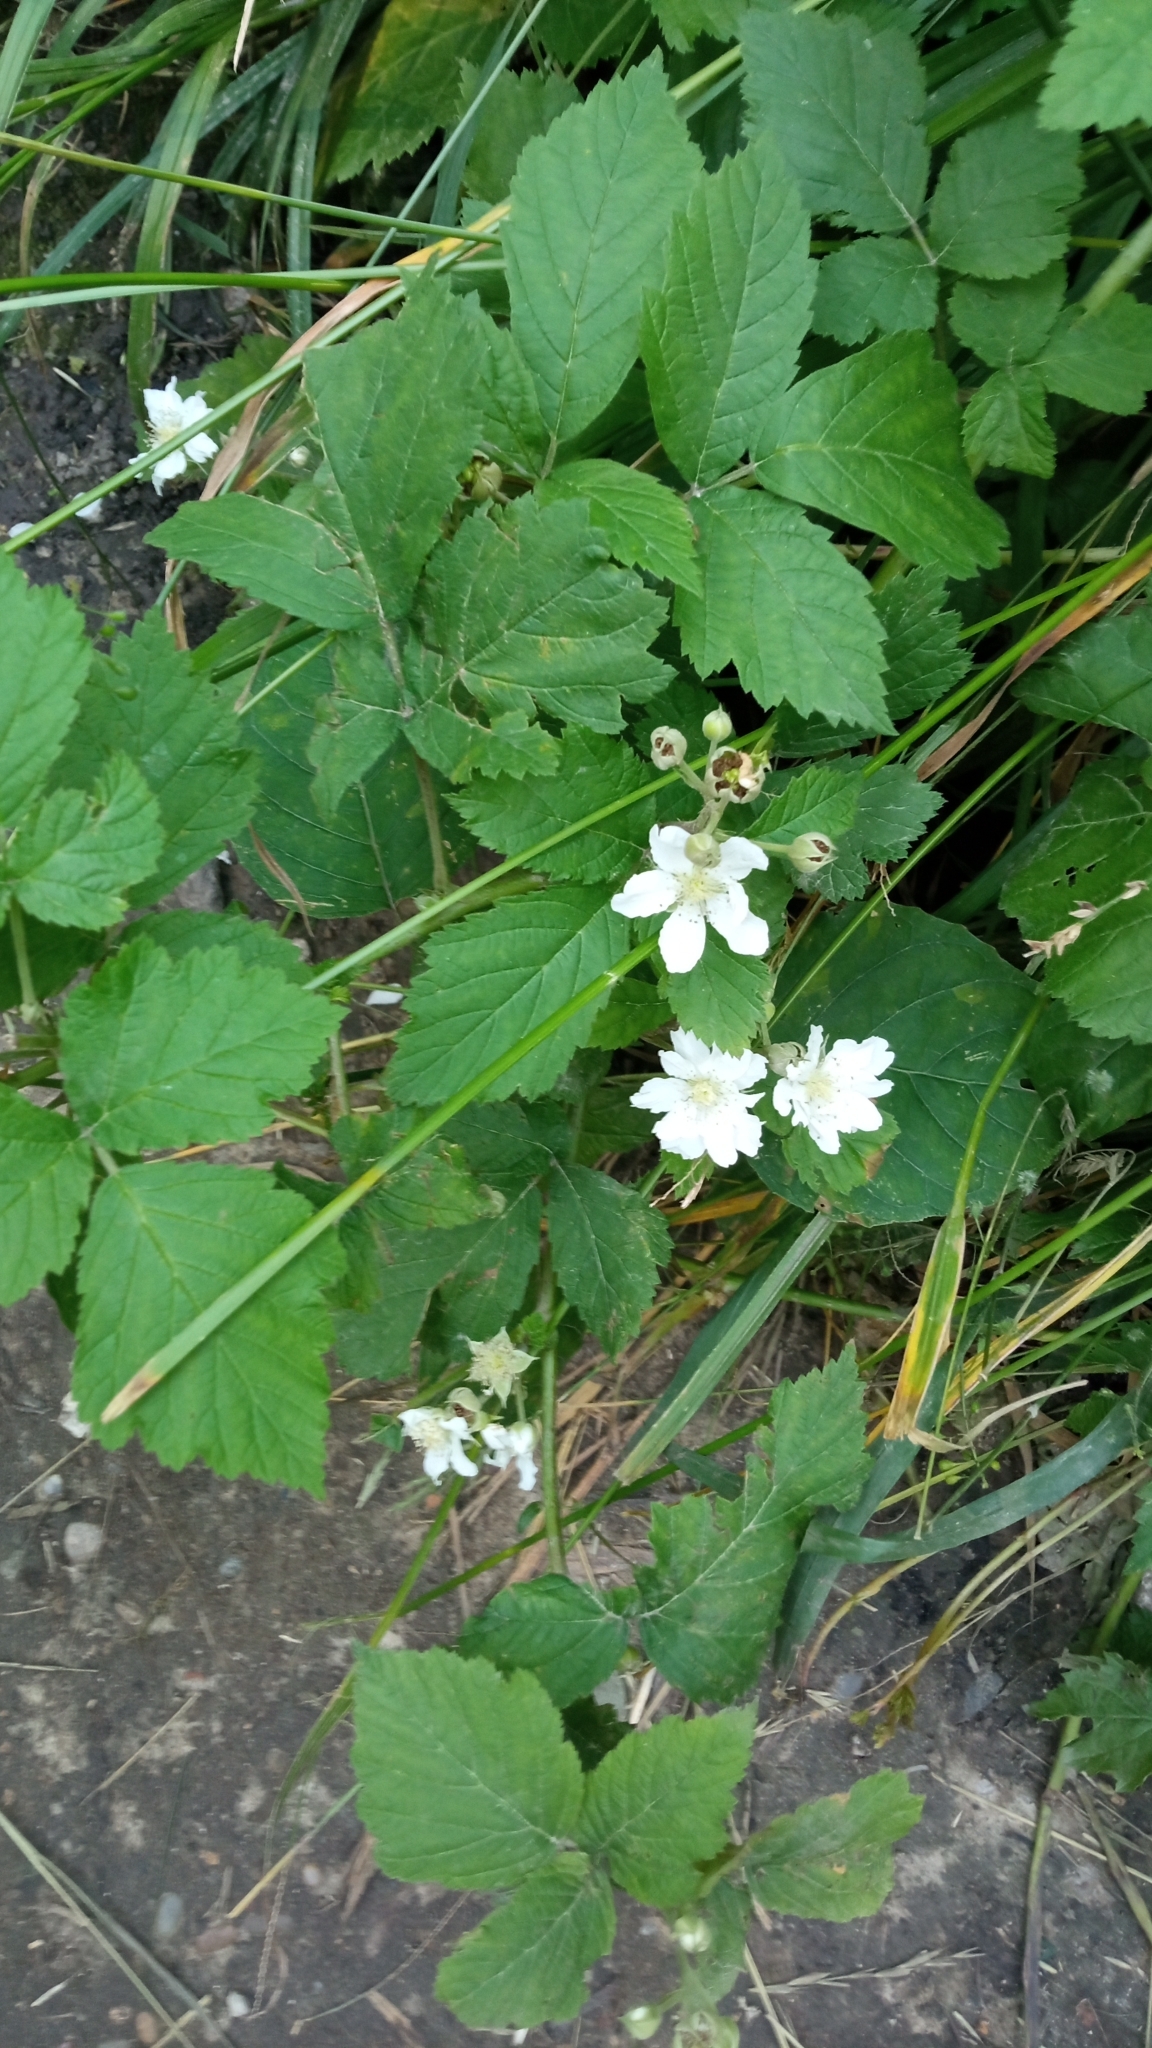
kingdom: Plantae
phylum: Tracheophyta
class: Magnoliopsida
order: Rosales
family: Rosaceae
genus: Rubus
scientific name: Rubus caesius
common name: Dewberry
